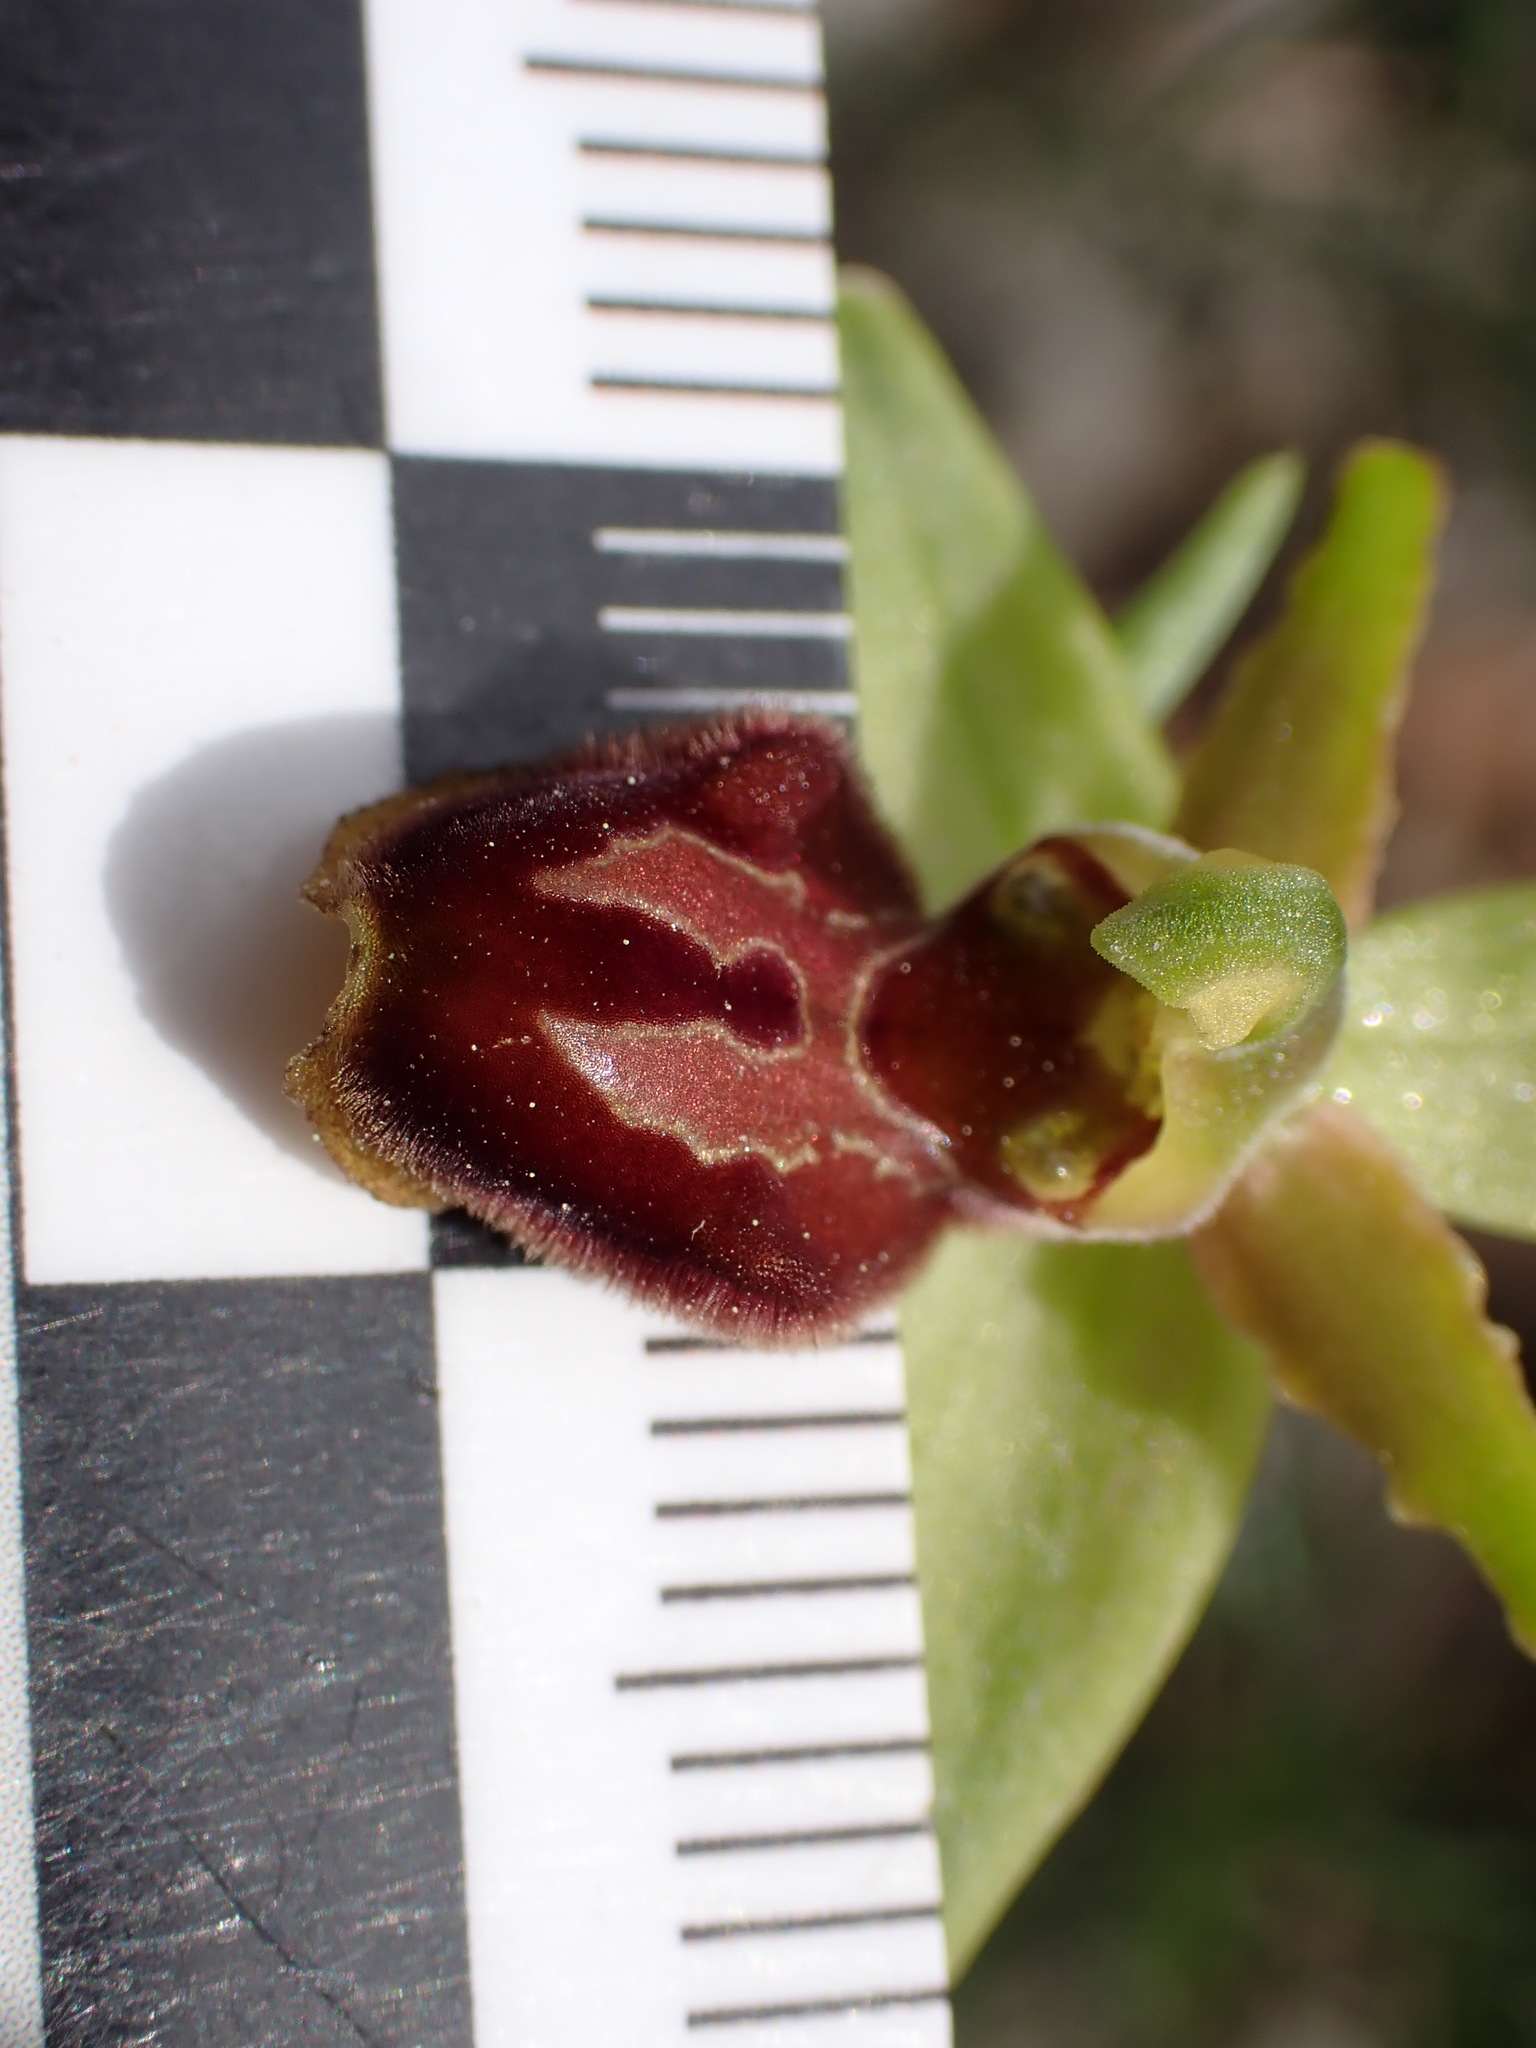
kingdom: Plantae
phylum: Tracheophyta
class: Liliopsida
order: Asparagales
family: Orchidaceae
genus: Ophrys
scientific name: Ophrys sphegodes
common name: Early spider-orchid
